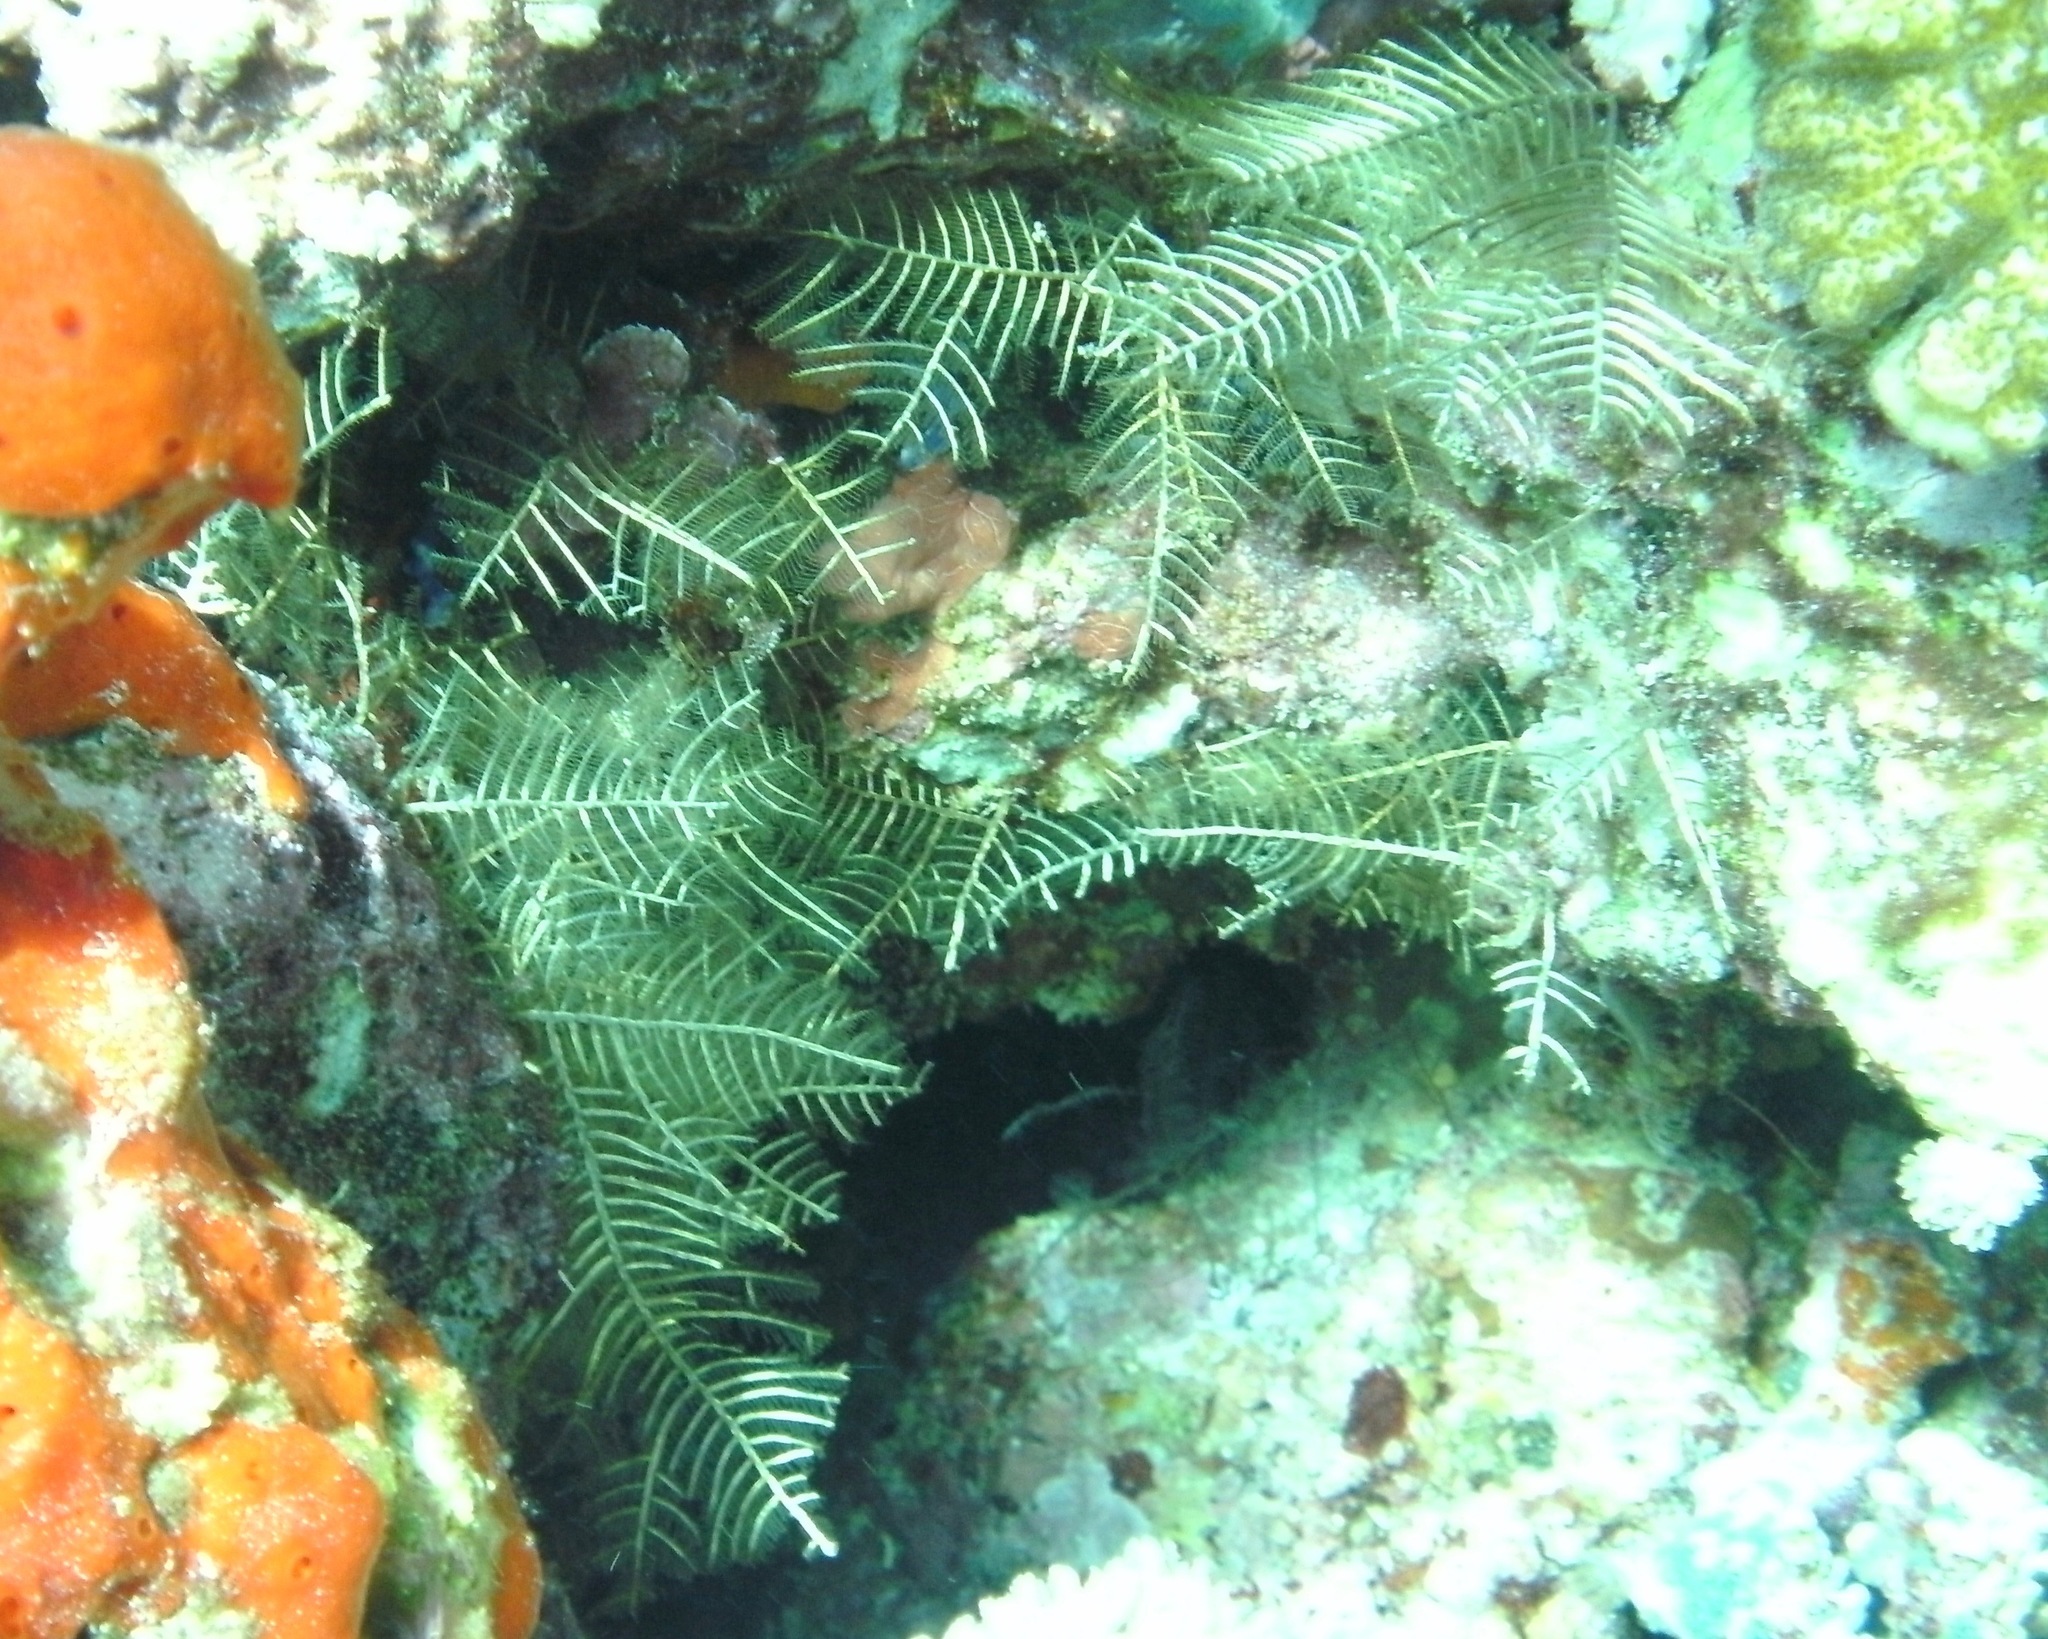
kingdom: Animalia
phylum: Cnidaria
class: Hydrozoa
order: Leptothecata
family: Aglaopheniidae
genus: Macrorhynchia
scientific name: Macrorhynchia phoenicea
